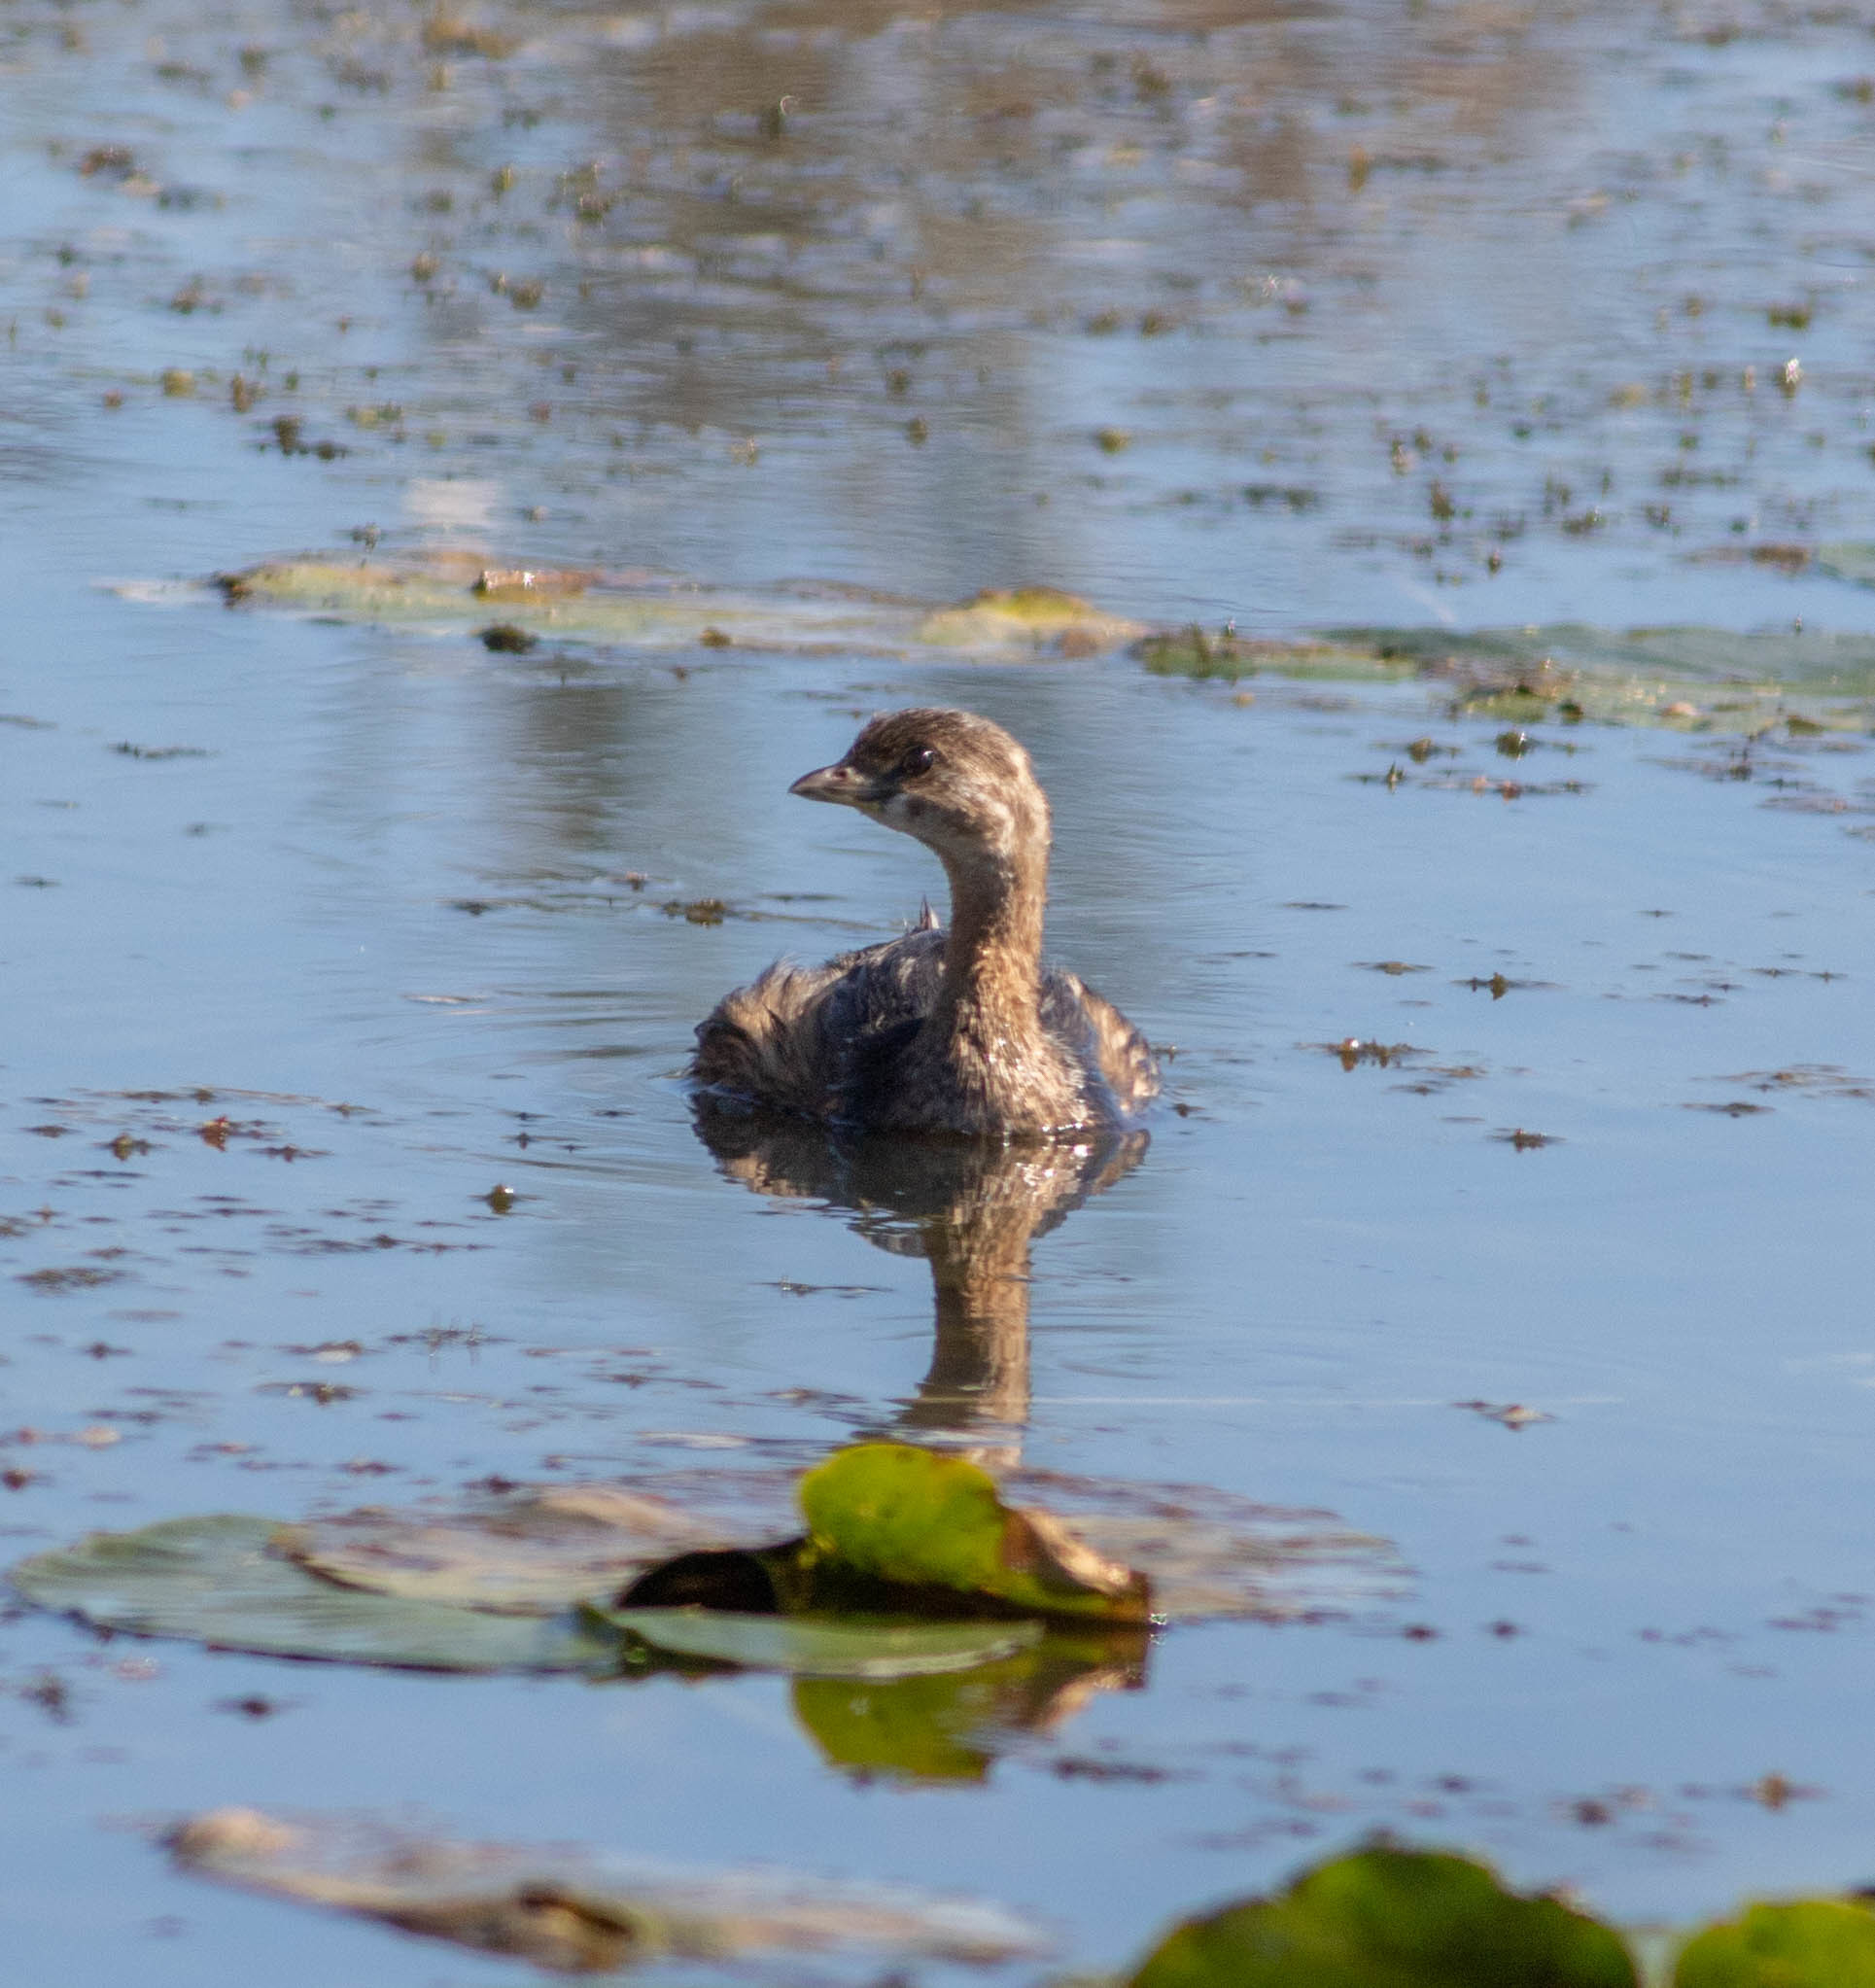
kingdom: Animalia
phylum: Chordata
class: Aves
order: Podicipediformes
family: Podicipedidae
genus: Podilymbus
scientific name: Podilymbus podiceps
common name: Pied-billed grebe
